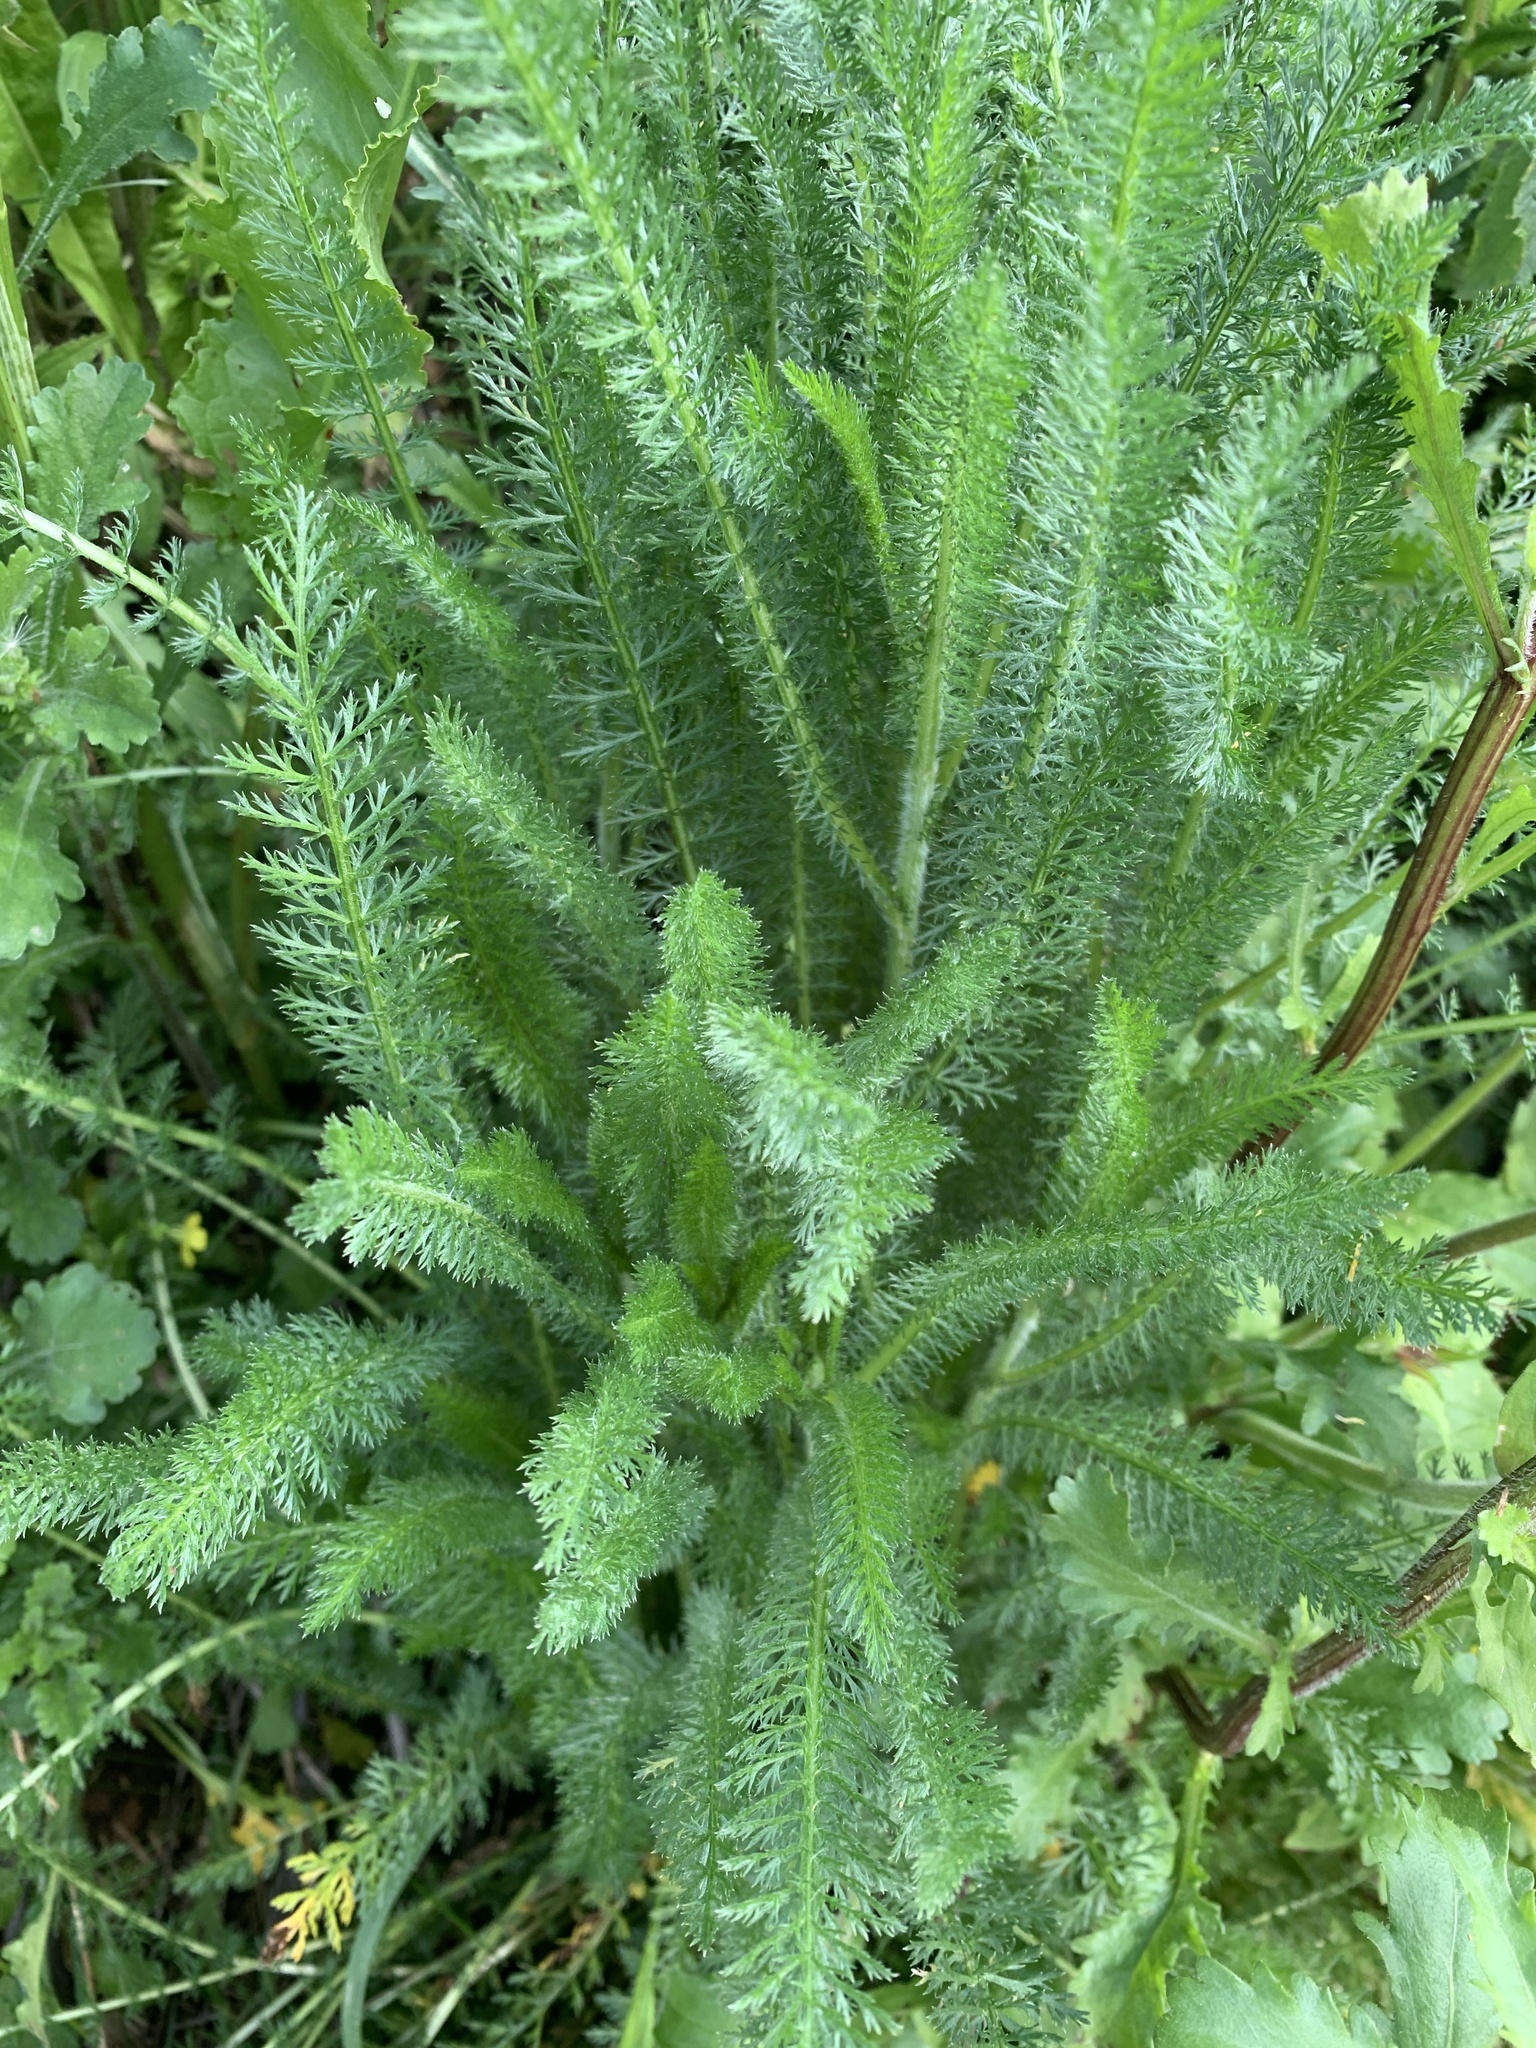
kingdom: Plantae
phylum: Tracheophyta
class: Magnoliopsida
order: Asterales
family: Asteraceae
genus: Achillea
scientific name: Achillea millefolium
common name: Yarrow
